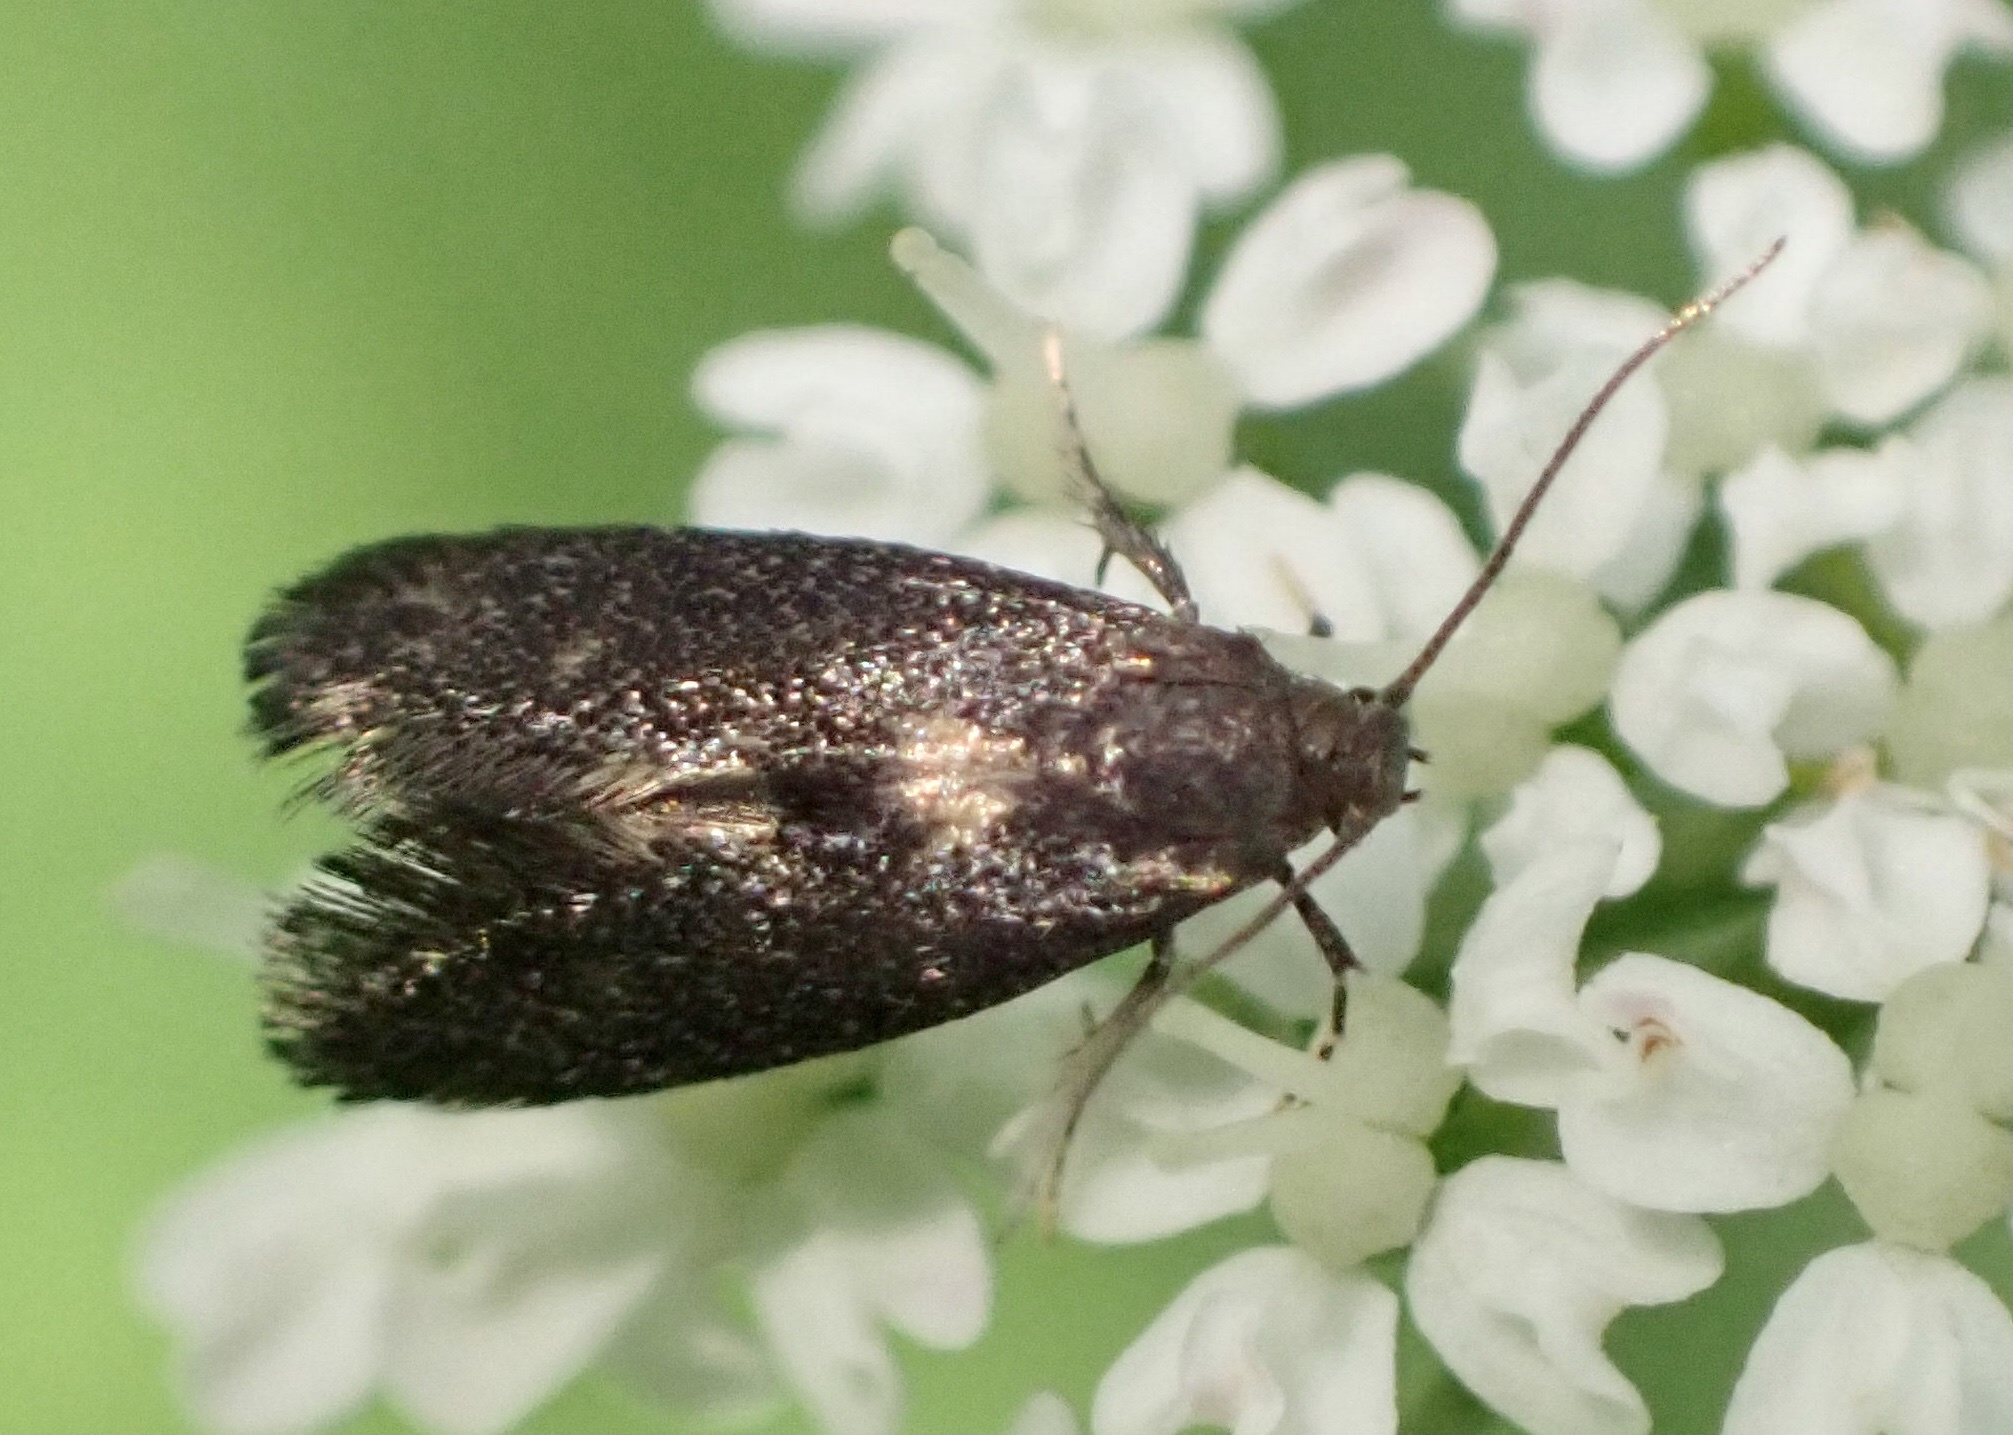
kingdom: Animalia
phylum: Arthropoda
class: Insecta
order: Lepidoptera
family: Epermeniidae
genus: Phaulernis
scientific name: Phaulernis dentella
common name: Scale-tooth lance-wing
